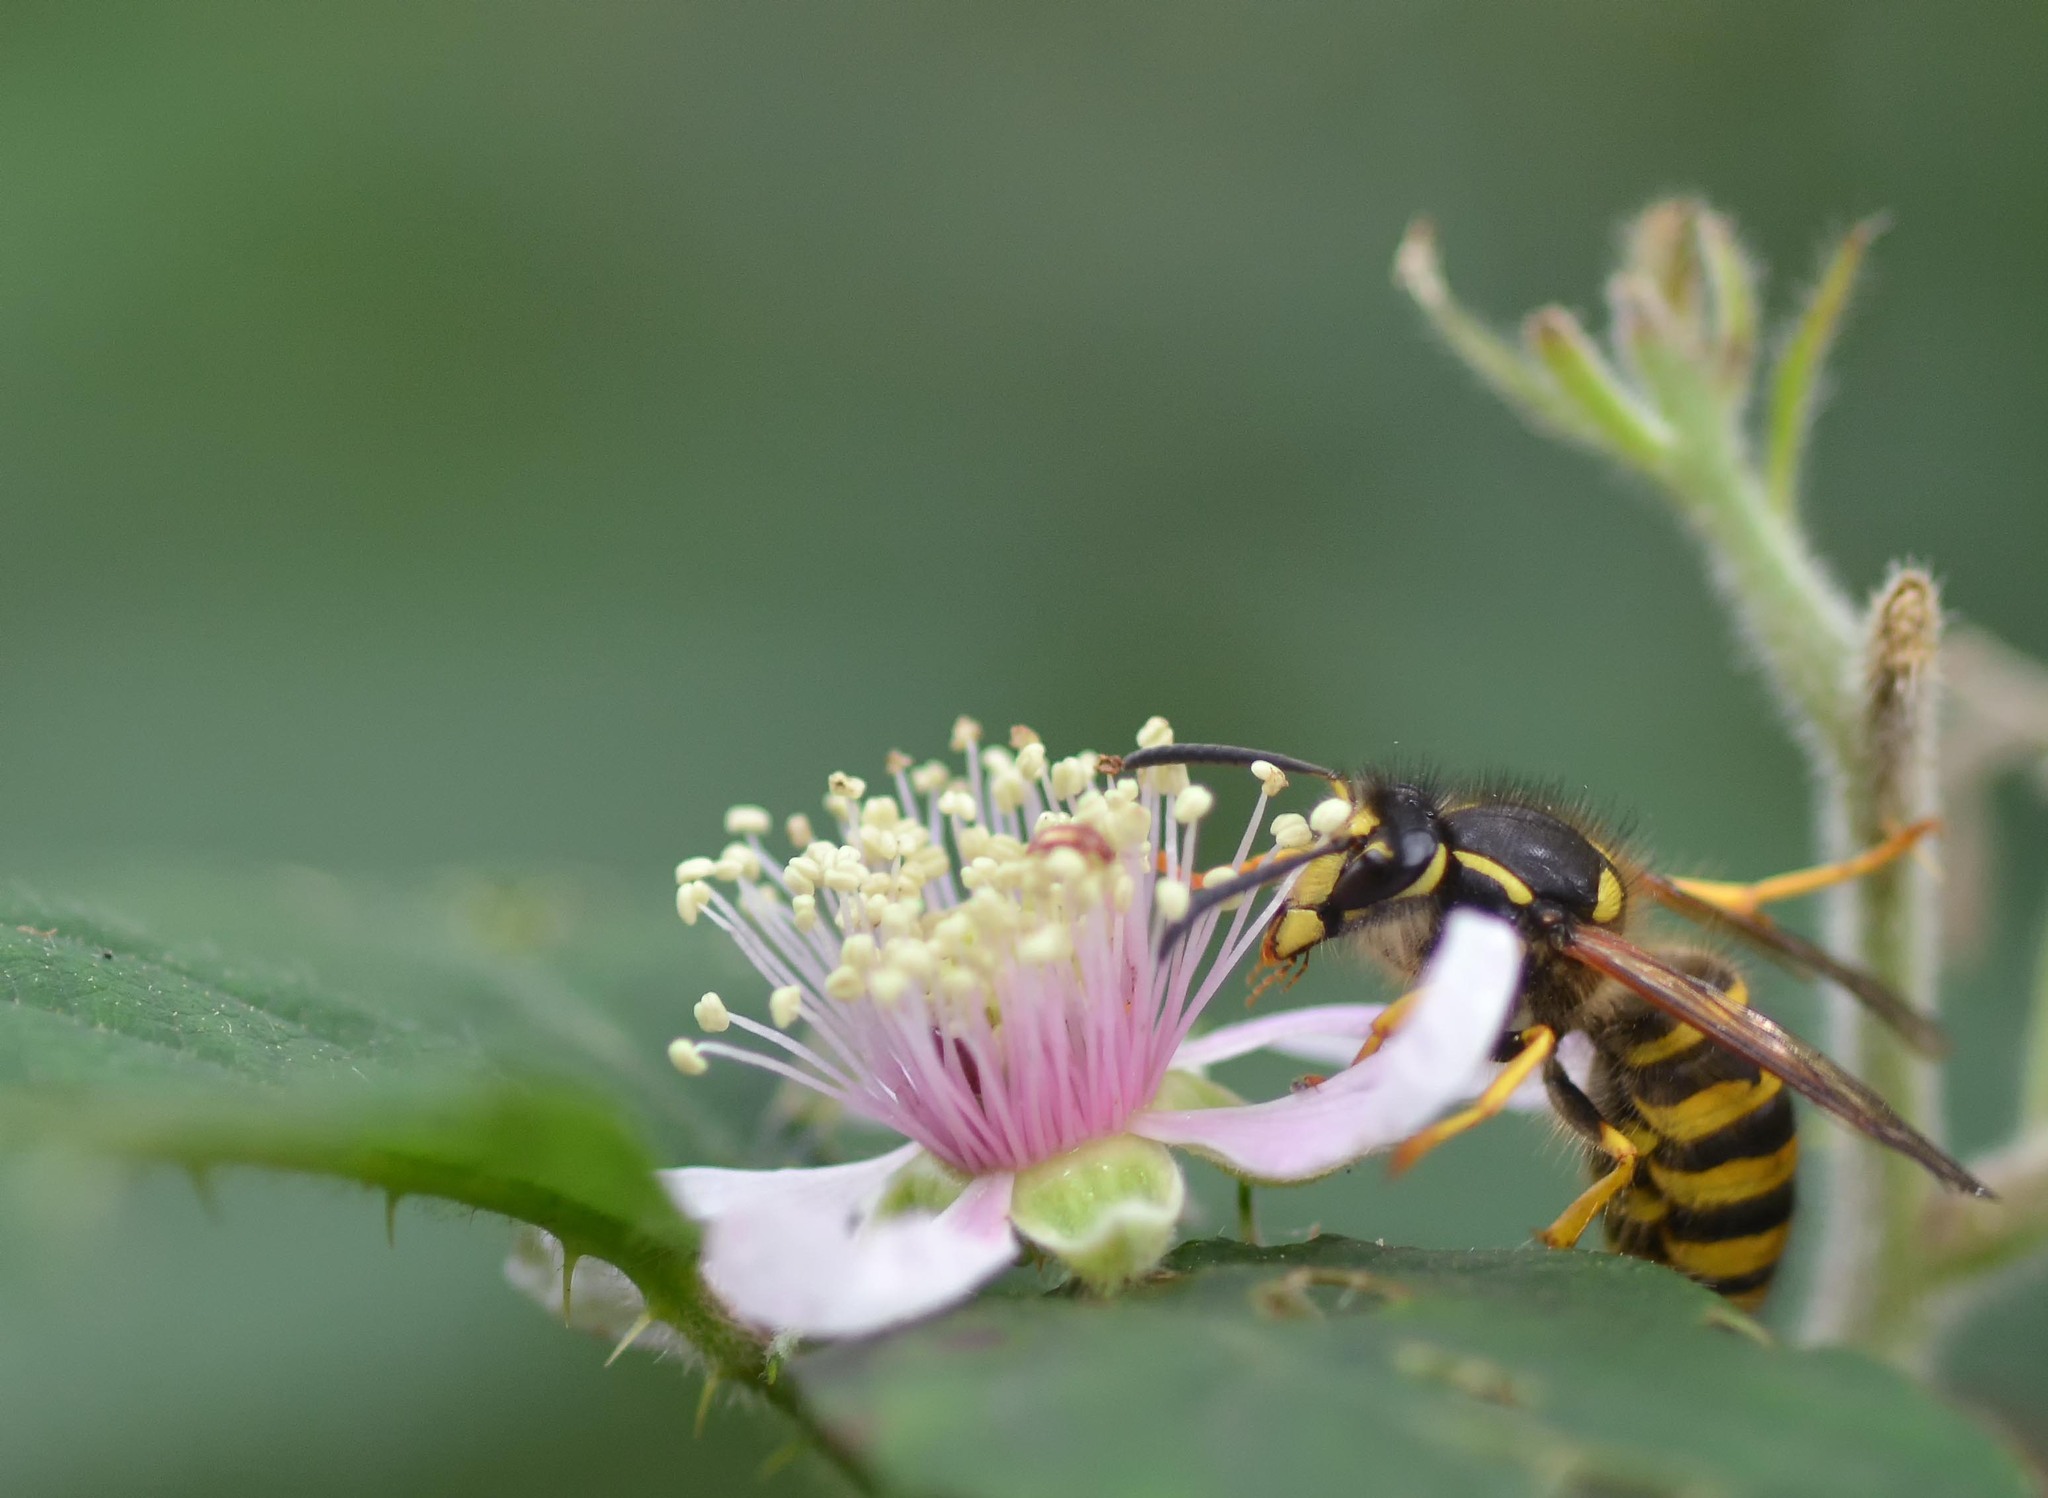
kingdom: Animalia
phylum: Arthropoda
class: Insecta
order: Hymenoptera
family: Vespidae
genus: Dolichovespula
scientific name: Dolichovespula sylvestris
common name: Tree wasp
